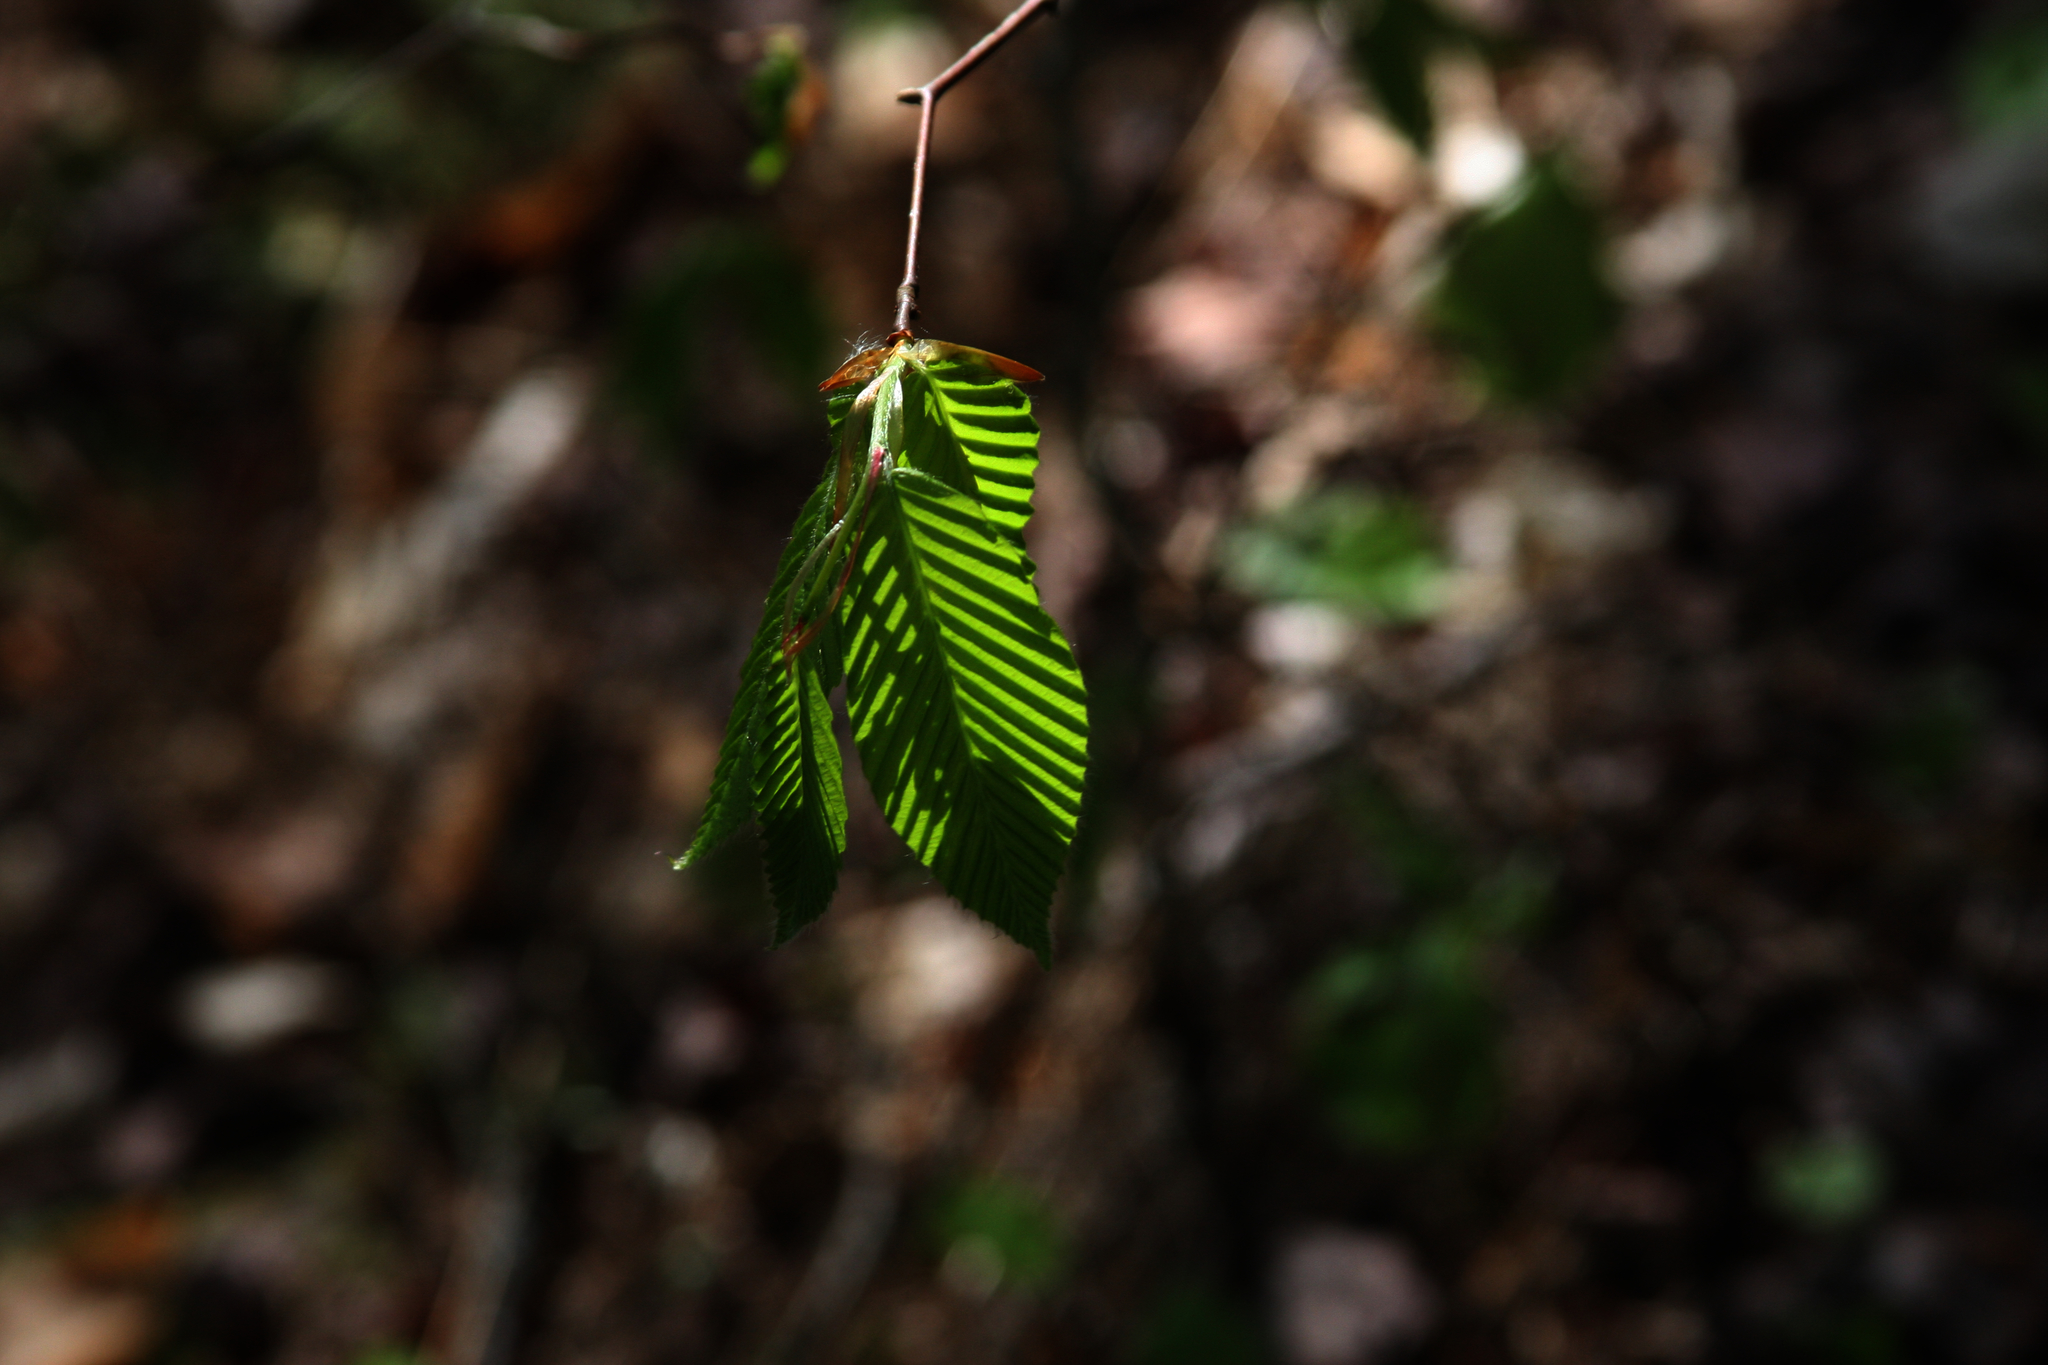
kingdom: Plantae
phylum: Tracheophyta
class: Magnoliopsida
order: Fagales
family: Fagaceae
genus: Fagus
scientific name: Fagus grandifolia
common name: American beech
